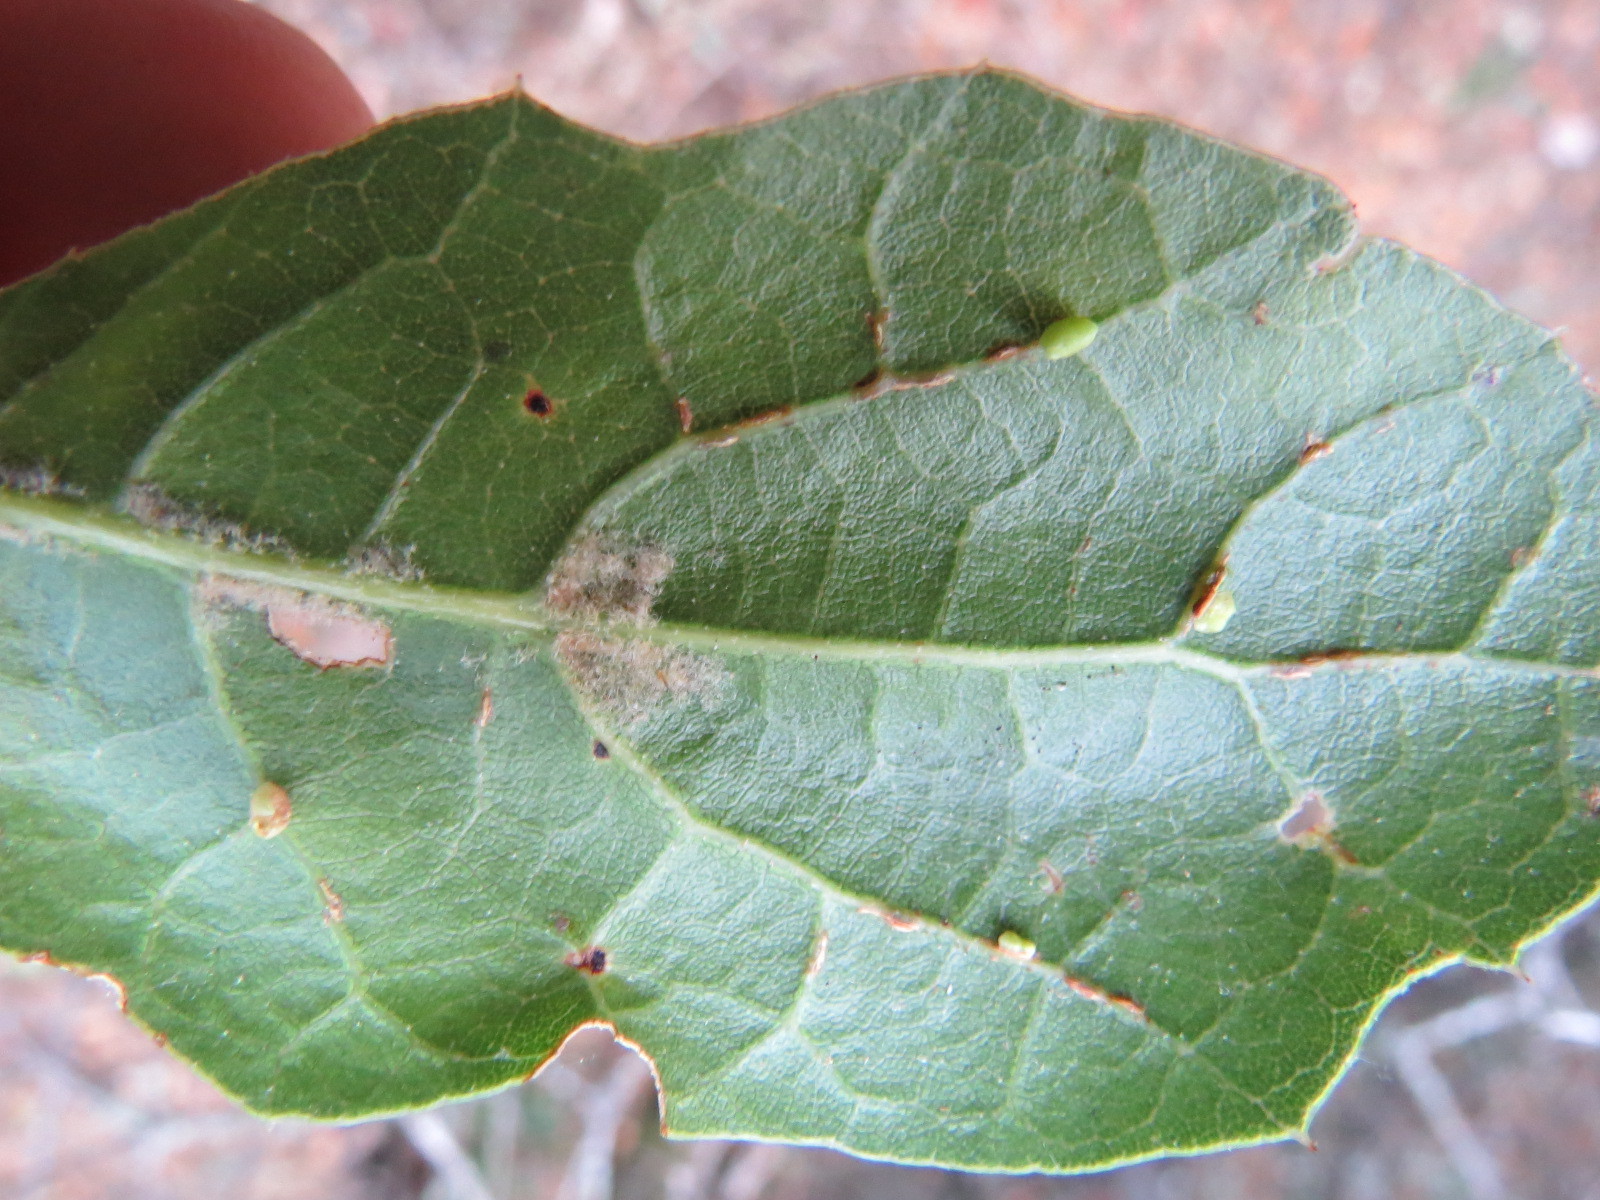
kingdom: Animalia
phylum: Arthropoda
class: Insecta
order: Hymenoptera
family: Cynipidae
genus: Dryocosmus
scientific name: Dryocosmus
